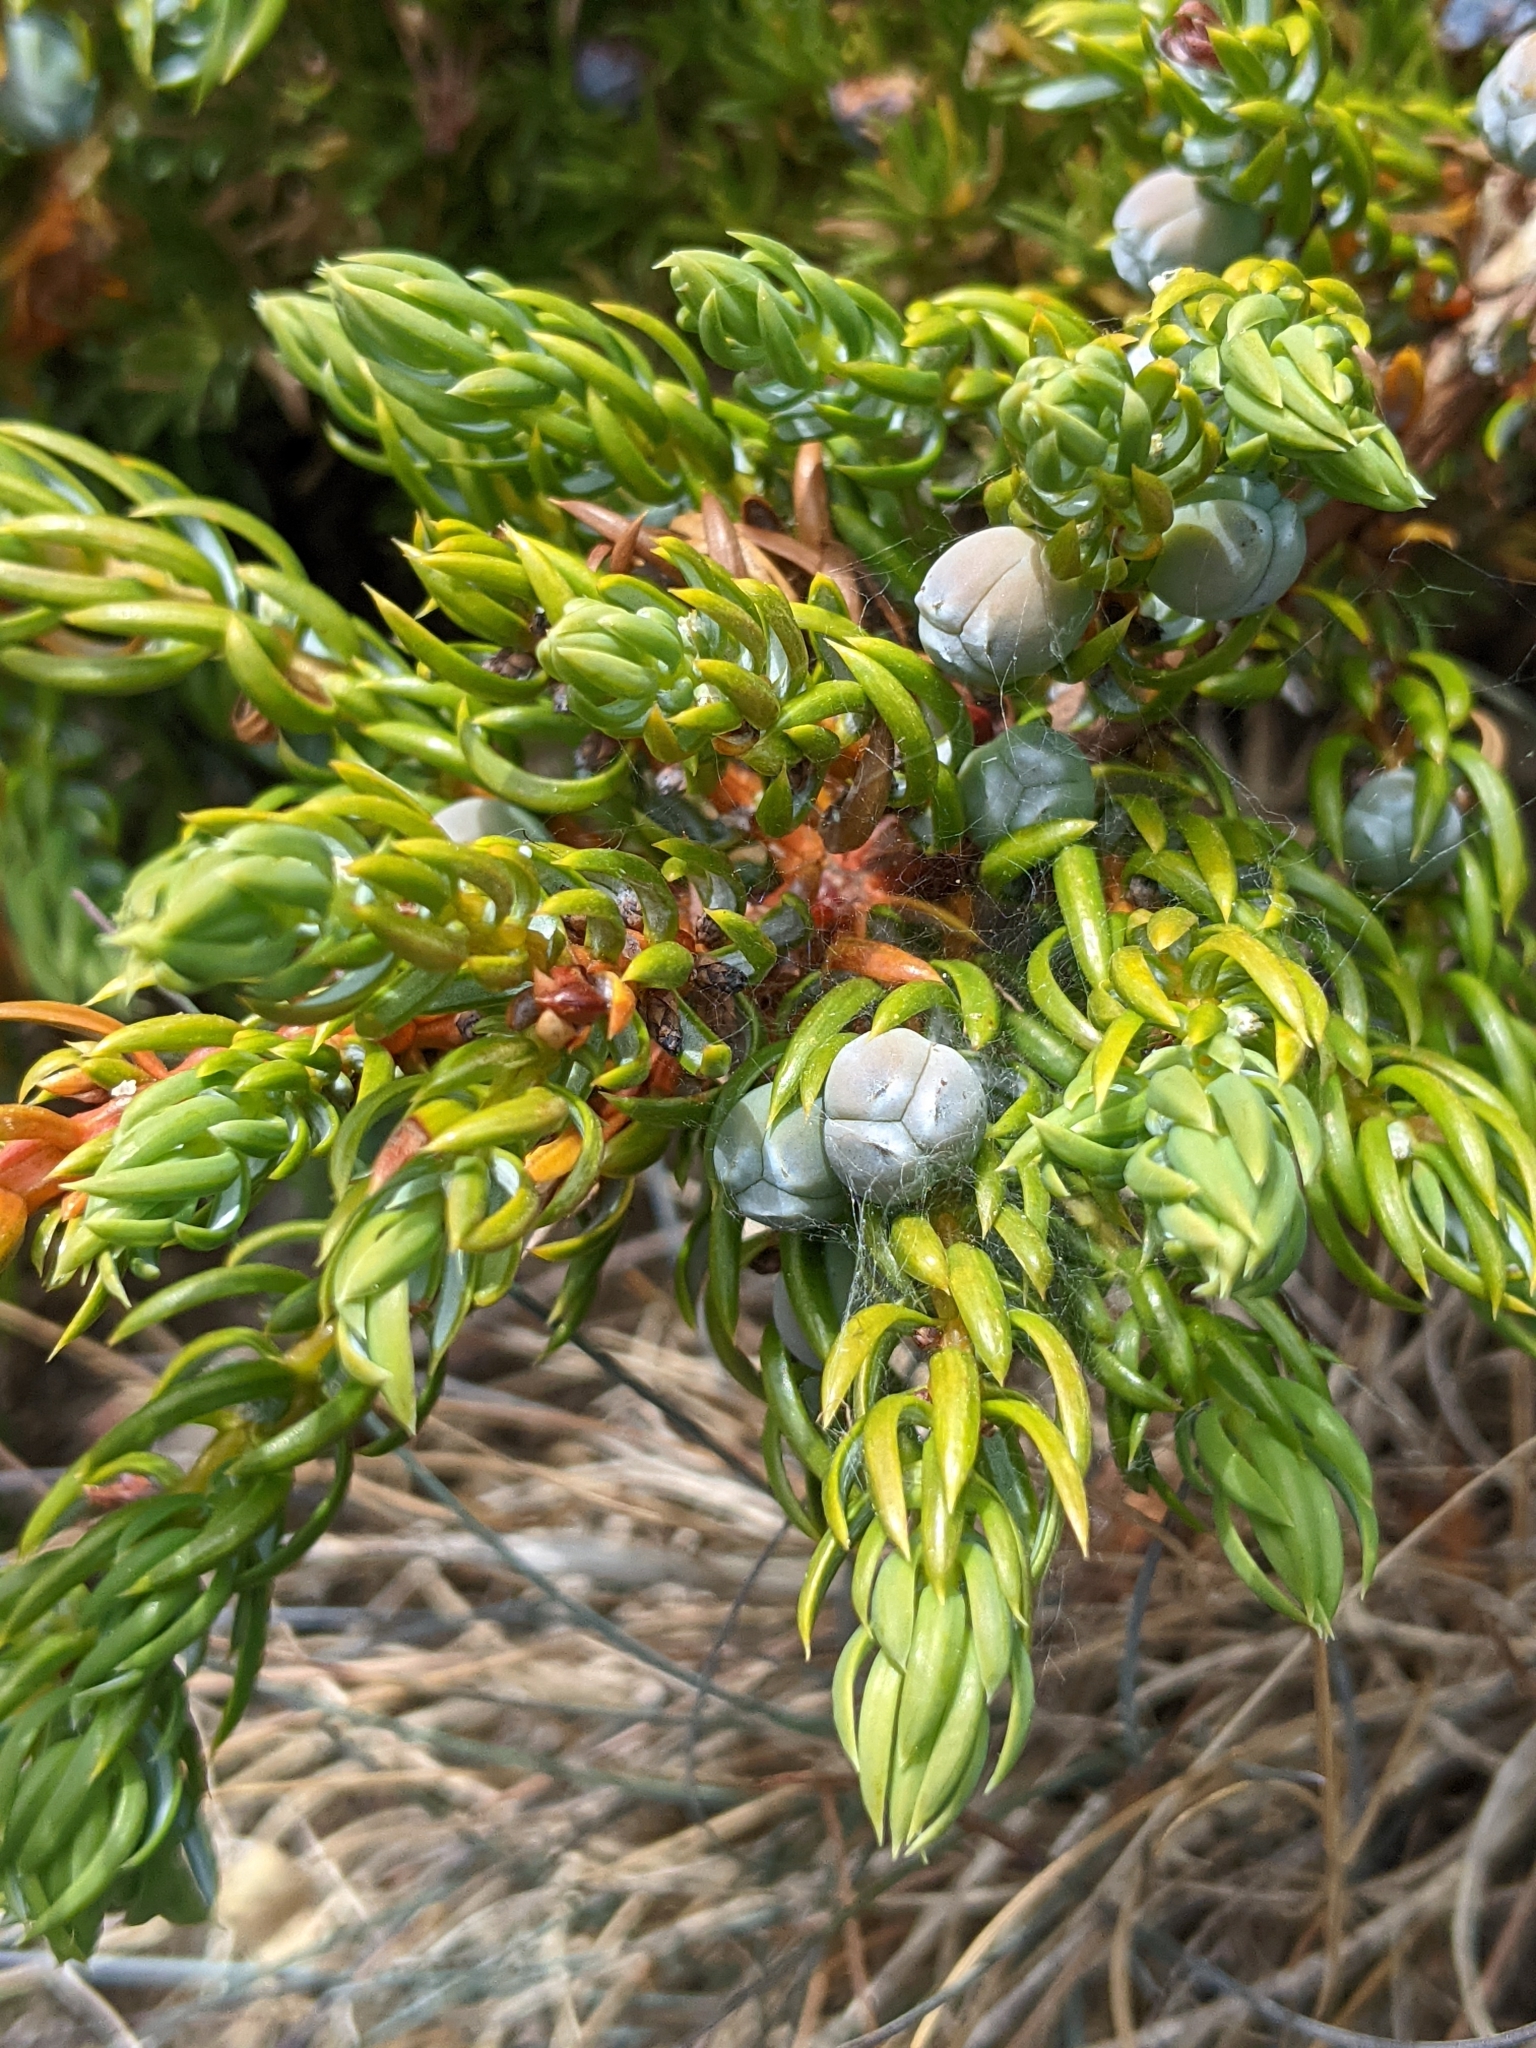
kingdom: Plantae
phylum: Tracheophyta
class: Pinopsida
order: Pinales
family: Cupressaceae
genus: Juniperus
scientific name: Juniperus communis
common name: Common juniper
